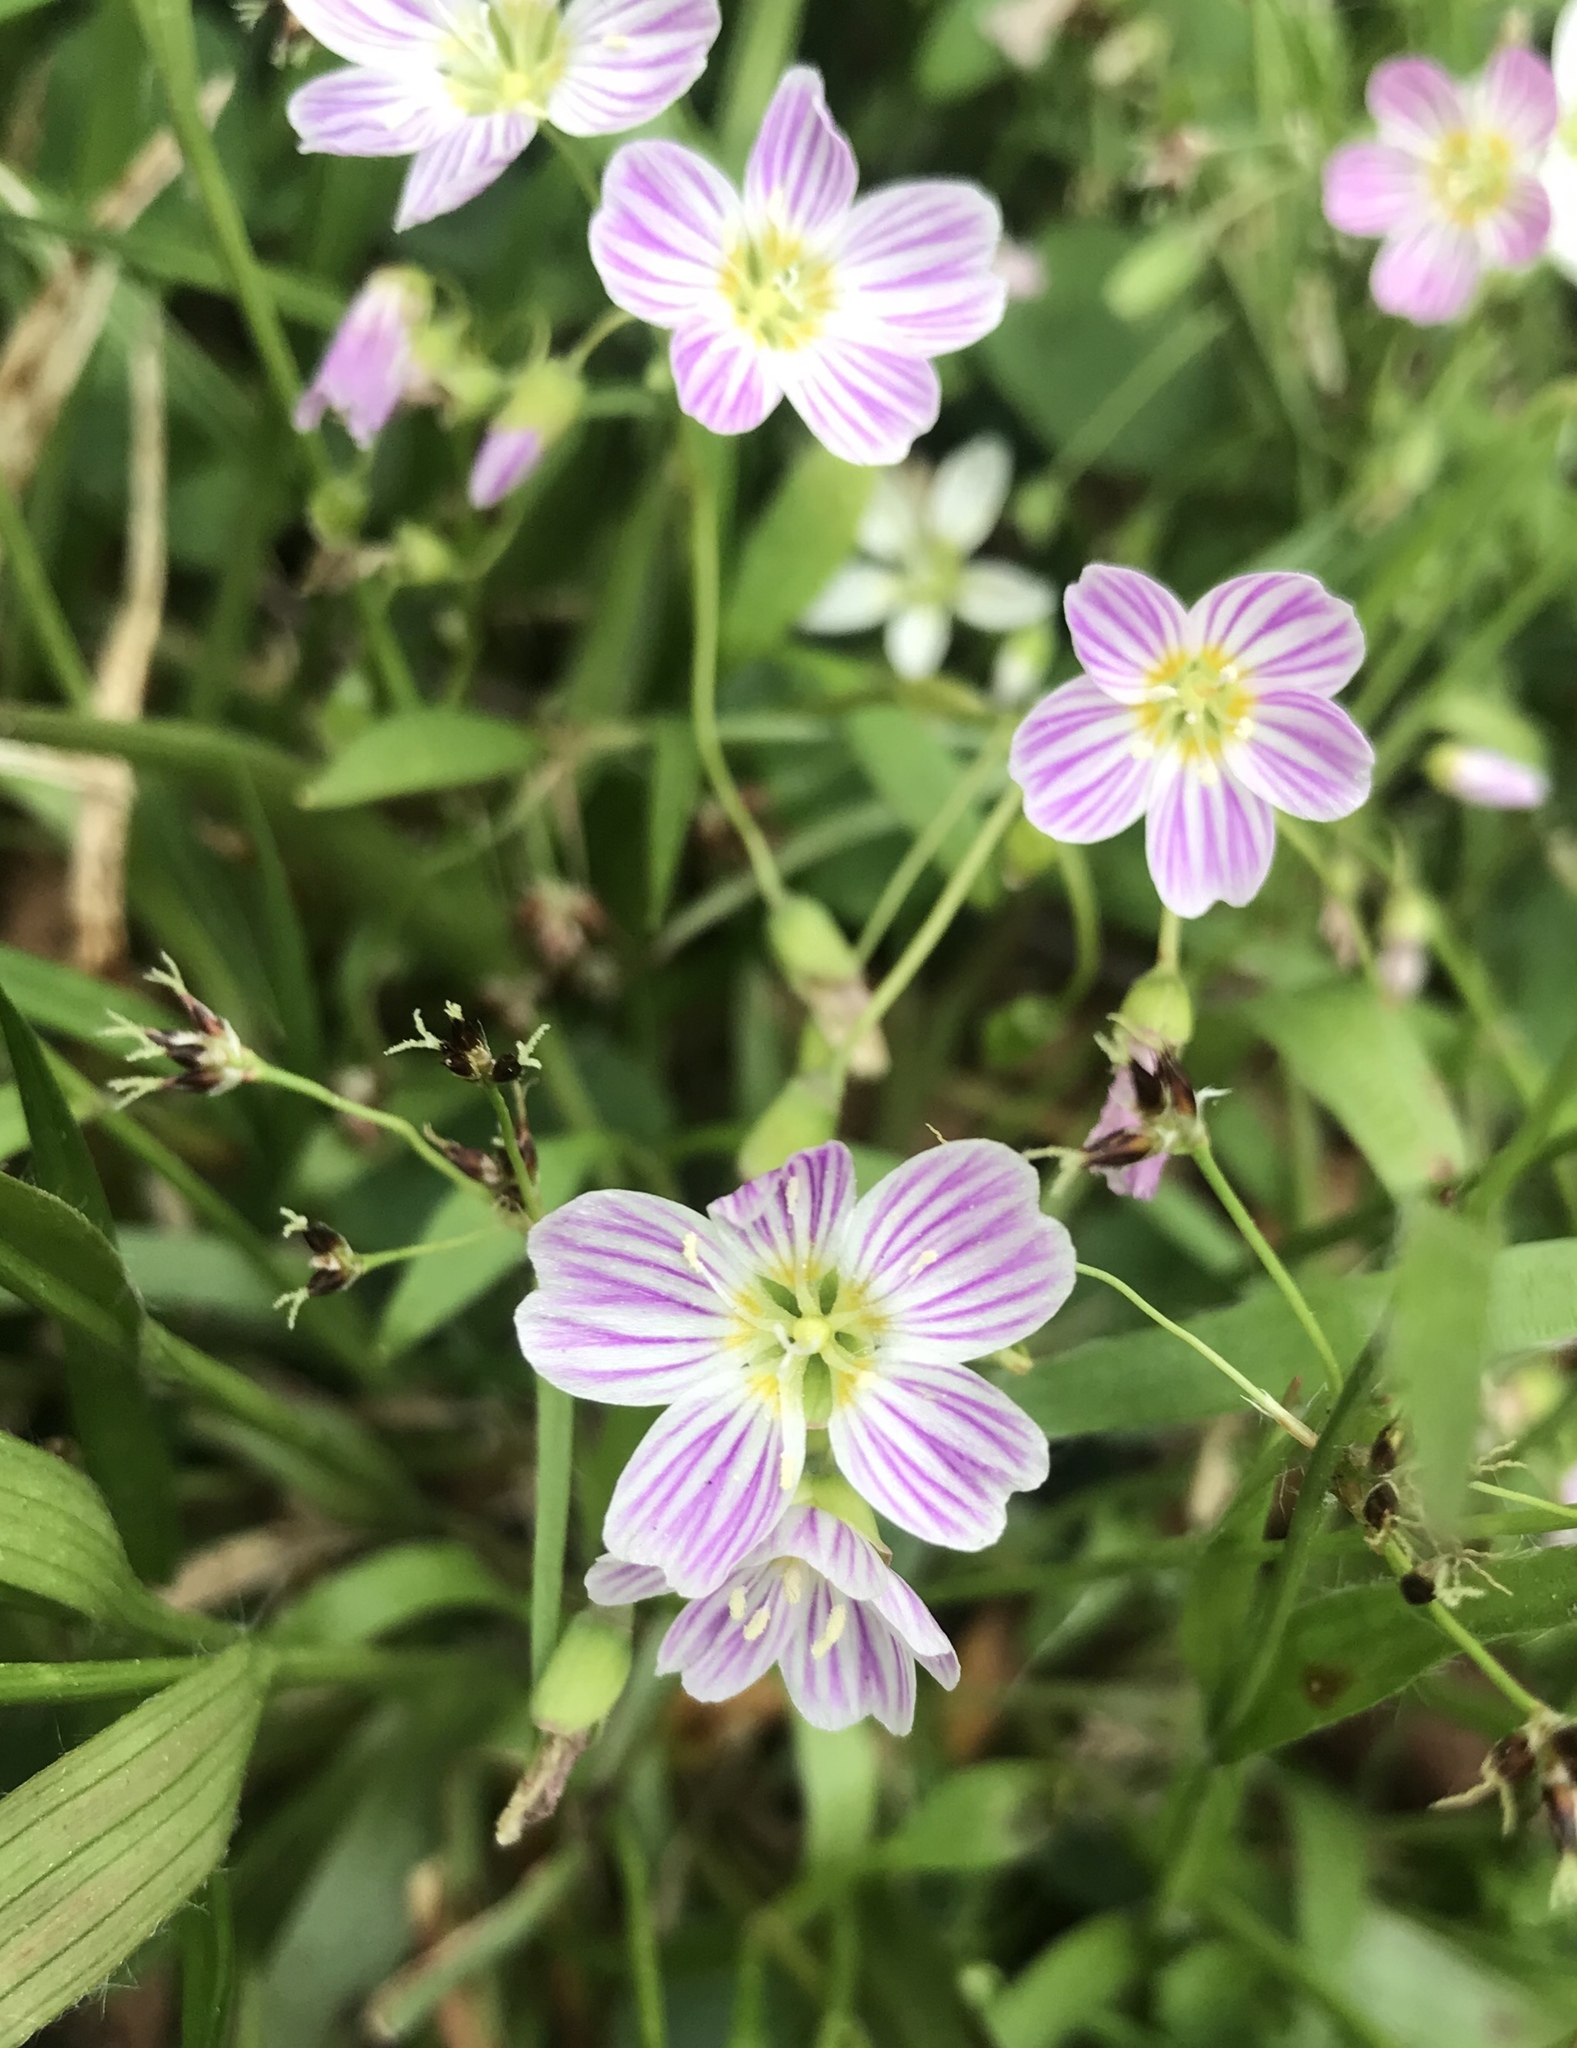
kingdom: Plantae
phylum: Tracheophyta
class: Magnoliopsida
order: Caryophyllales
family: Montiaceae
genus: Claytonia
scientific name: Claytonia caroliniana
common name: Carolina spring beauty
